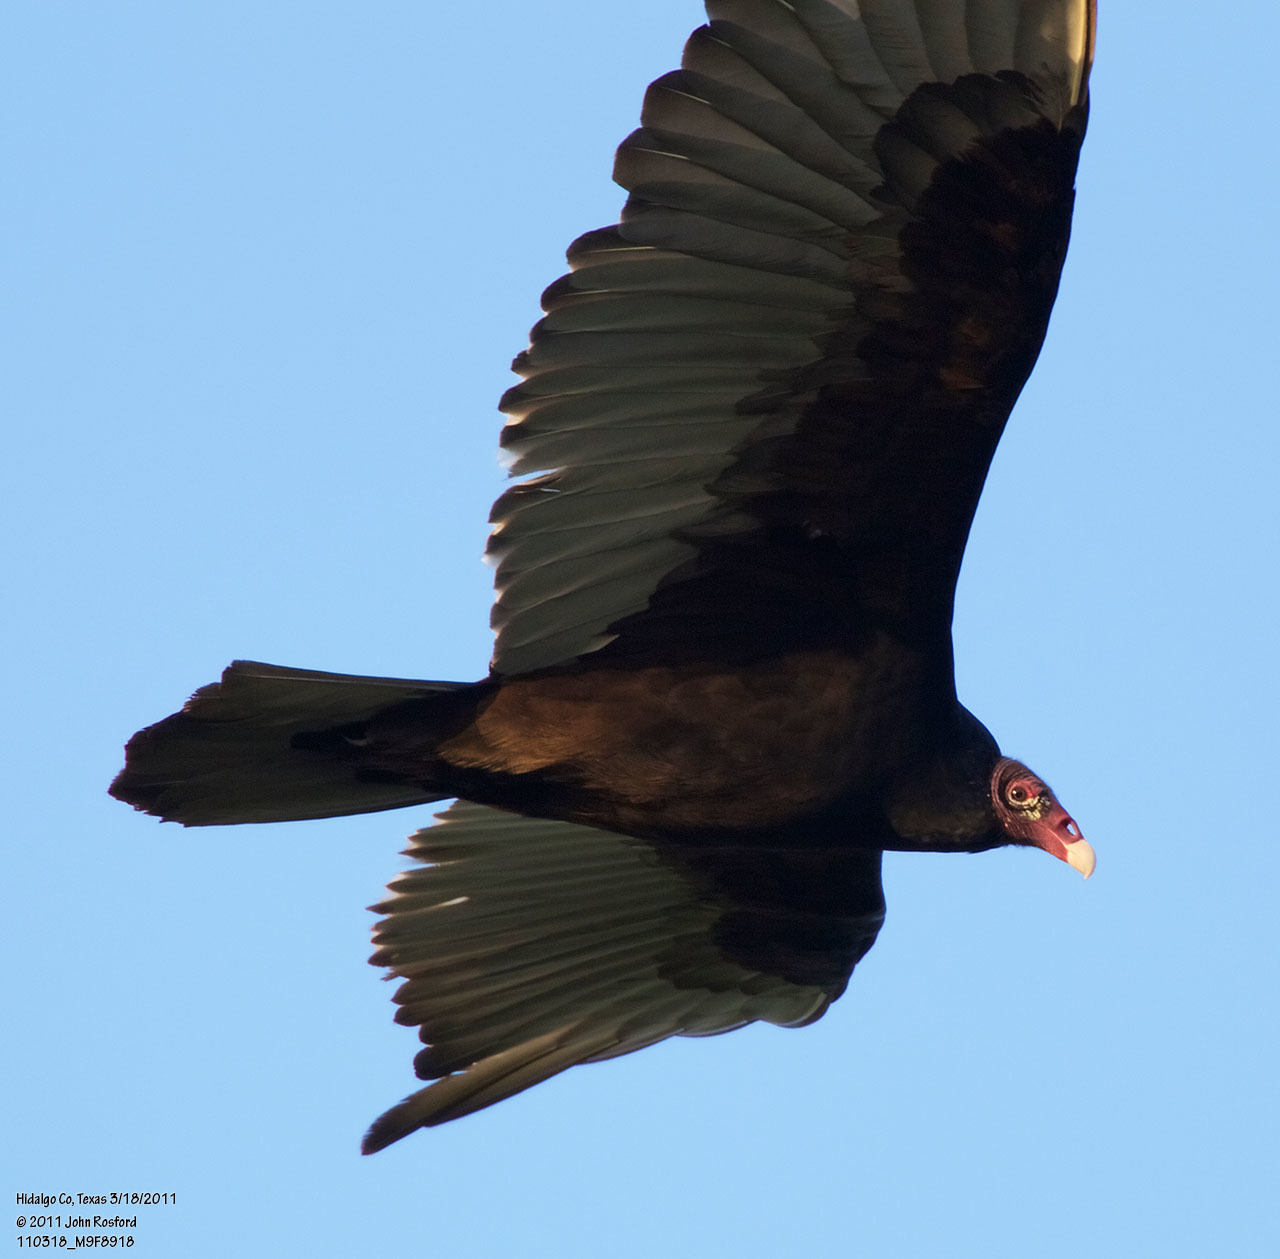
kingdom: Animalia
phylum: Chordata
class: Aves
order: Accipitriformes
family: Cathartidae
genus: Cathartes
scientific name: Cathartes aura
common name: Turkey vulture
